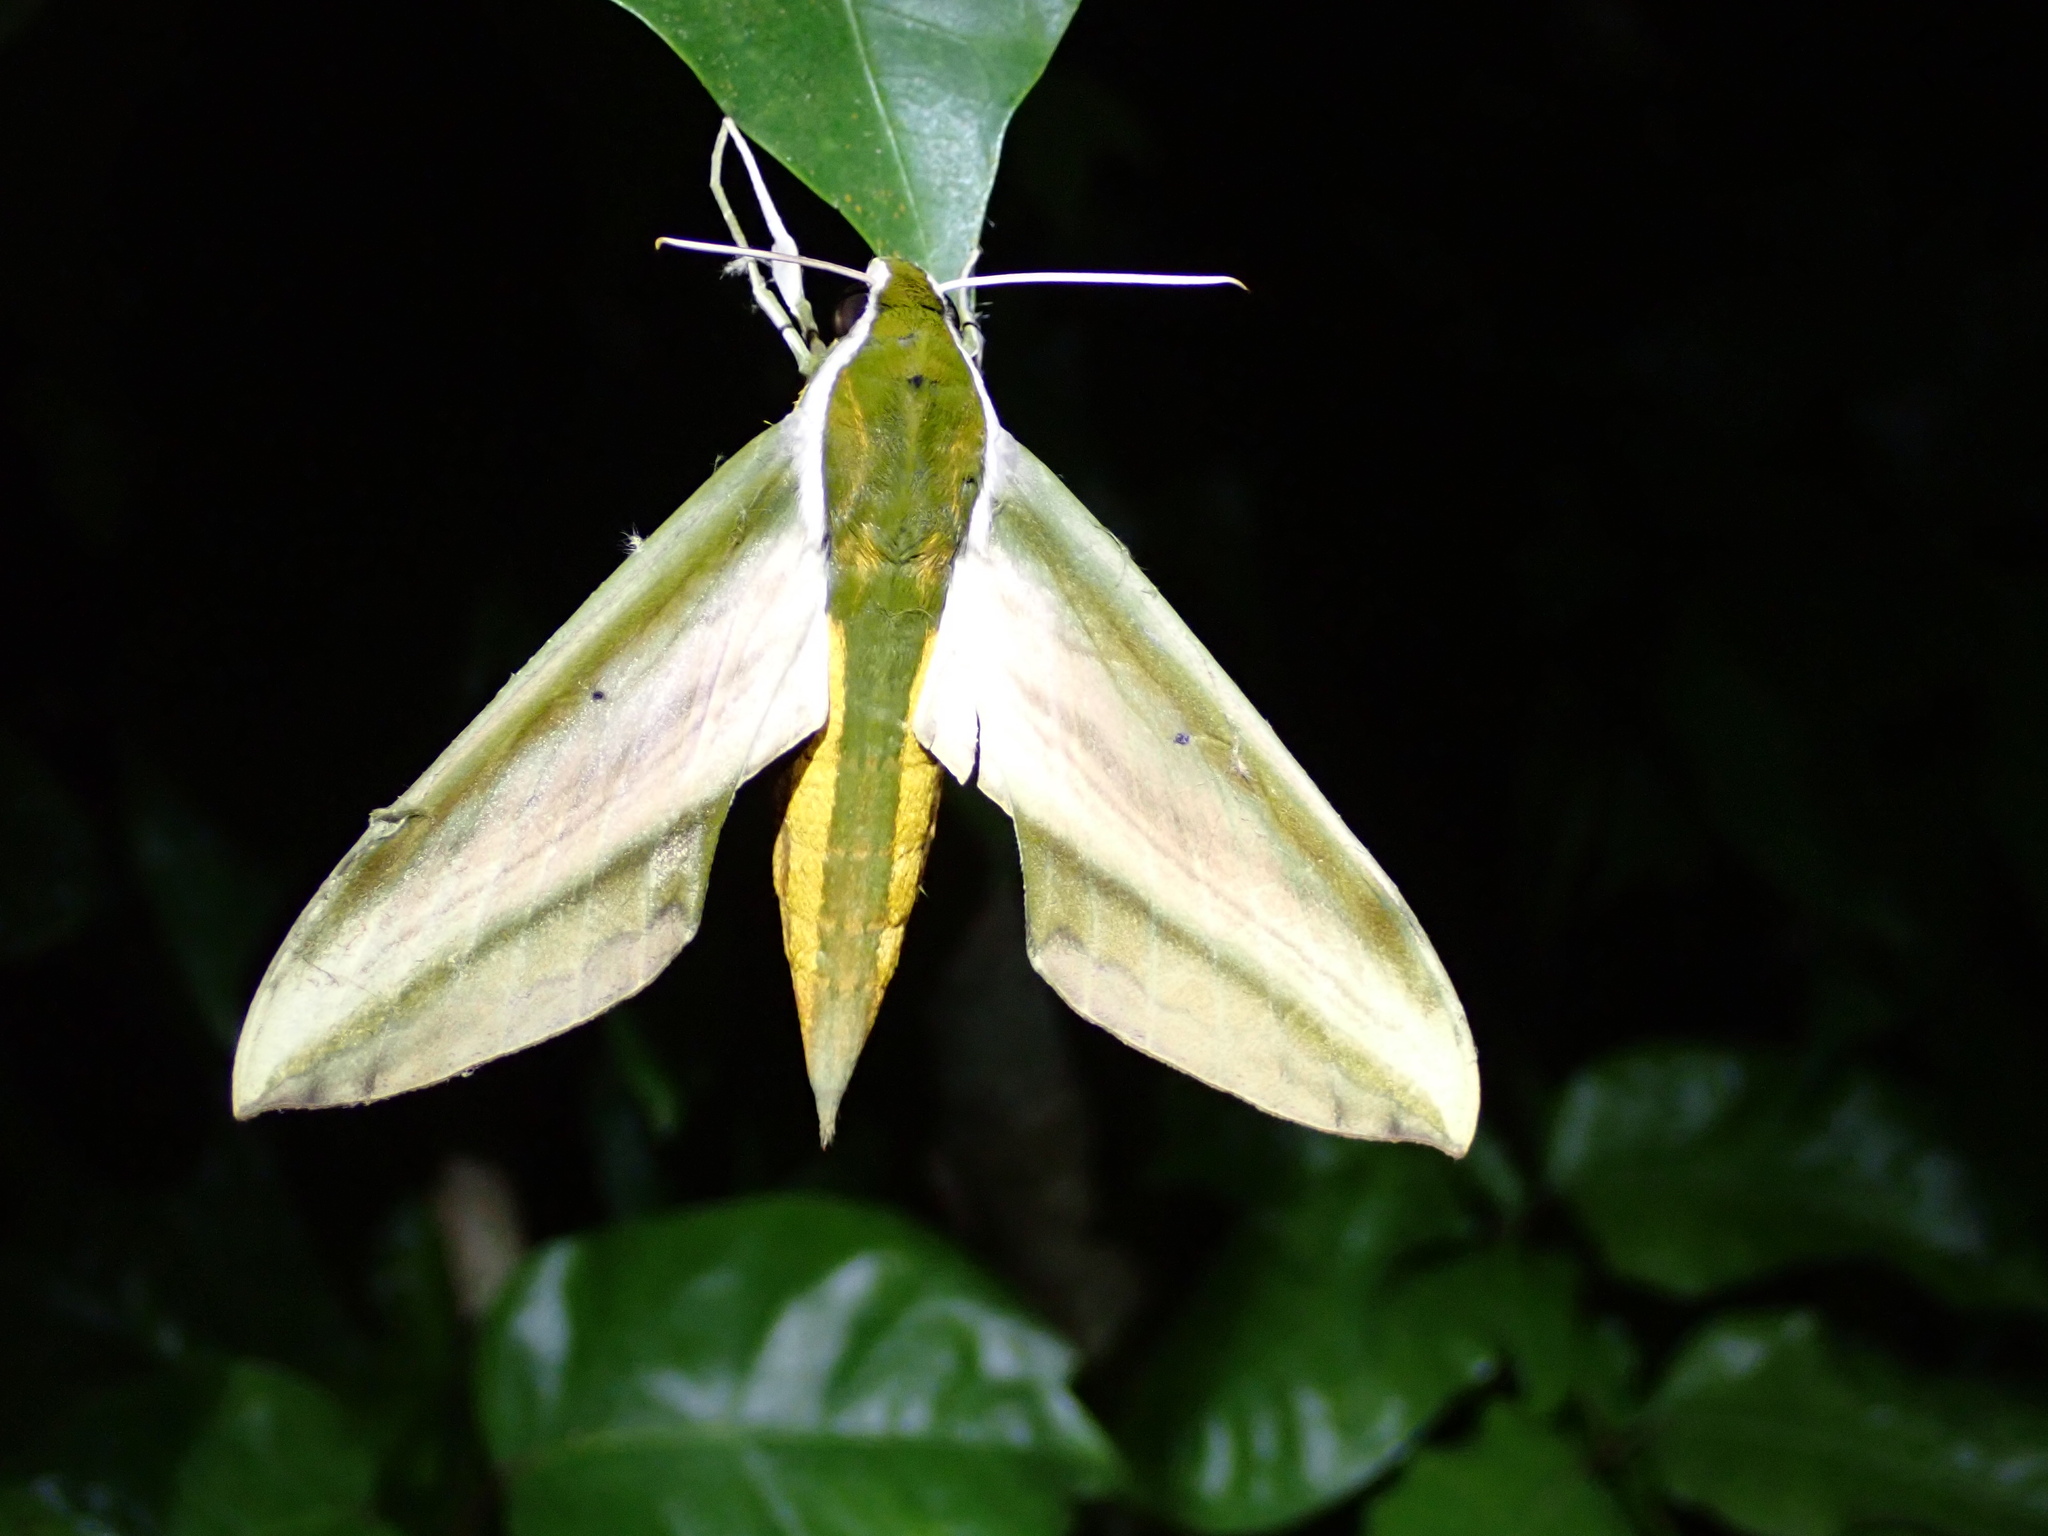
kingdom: Animalia
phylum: Arthropoda
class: Insecta
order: Lepidoptera
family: Sphingidae
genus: Theretra
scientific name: Theretra nessus
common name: Yam hawk moth
